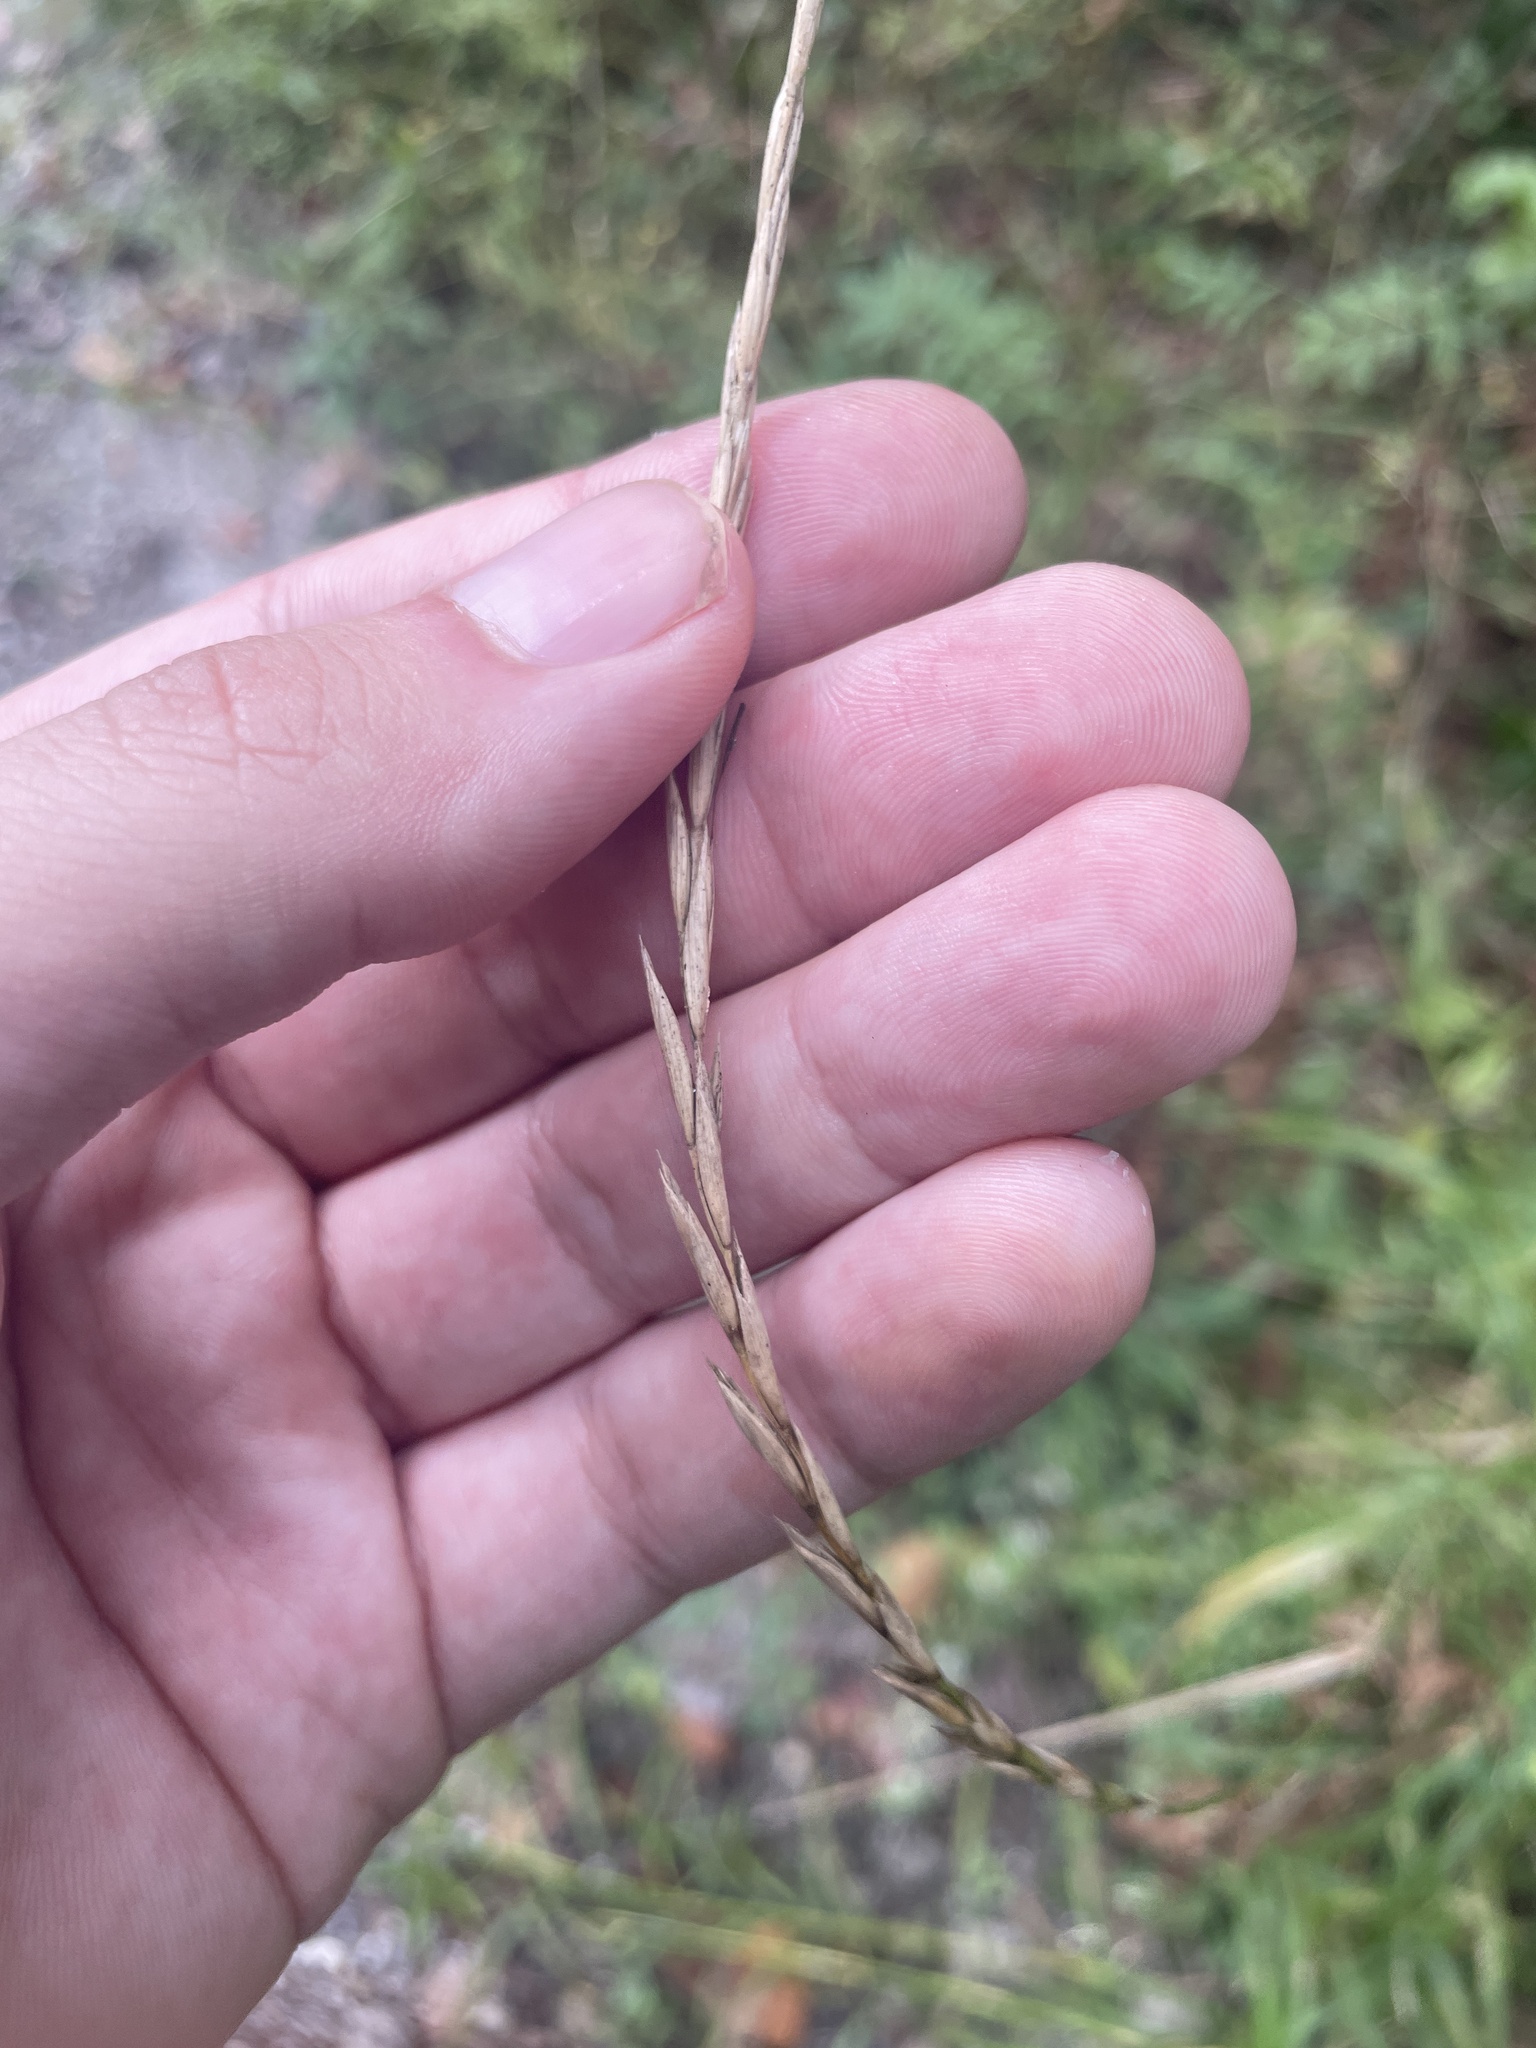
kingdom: Plantae
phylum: Tracheophyta
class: Liliopsida
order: Poales
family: Poaceae
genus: Elymus
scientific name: Elymus violaceus
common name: Arctic wheatgrass
